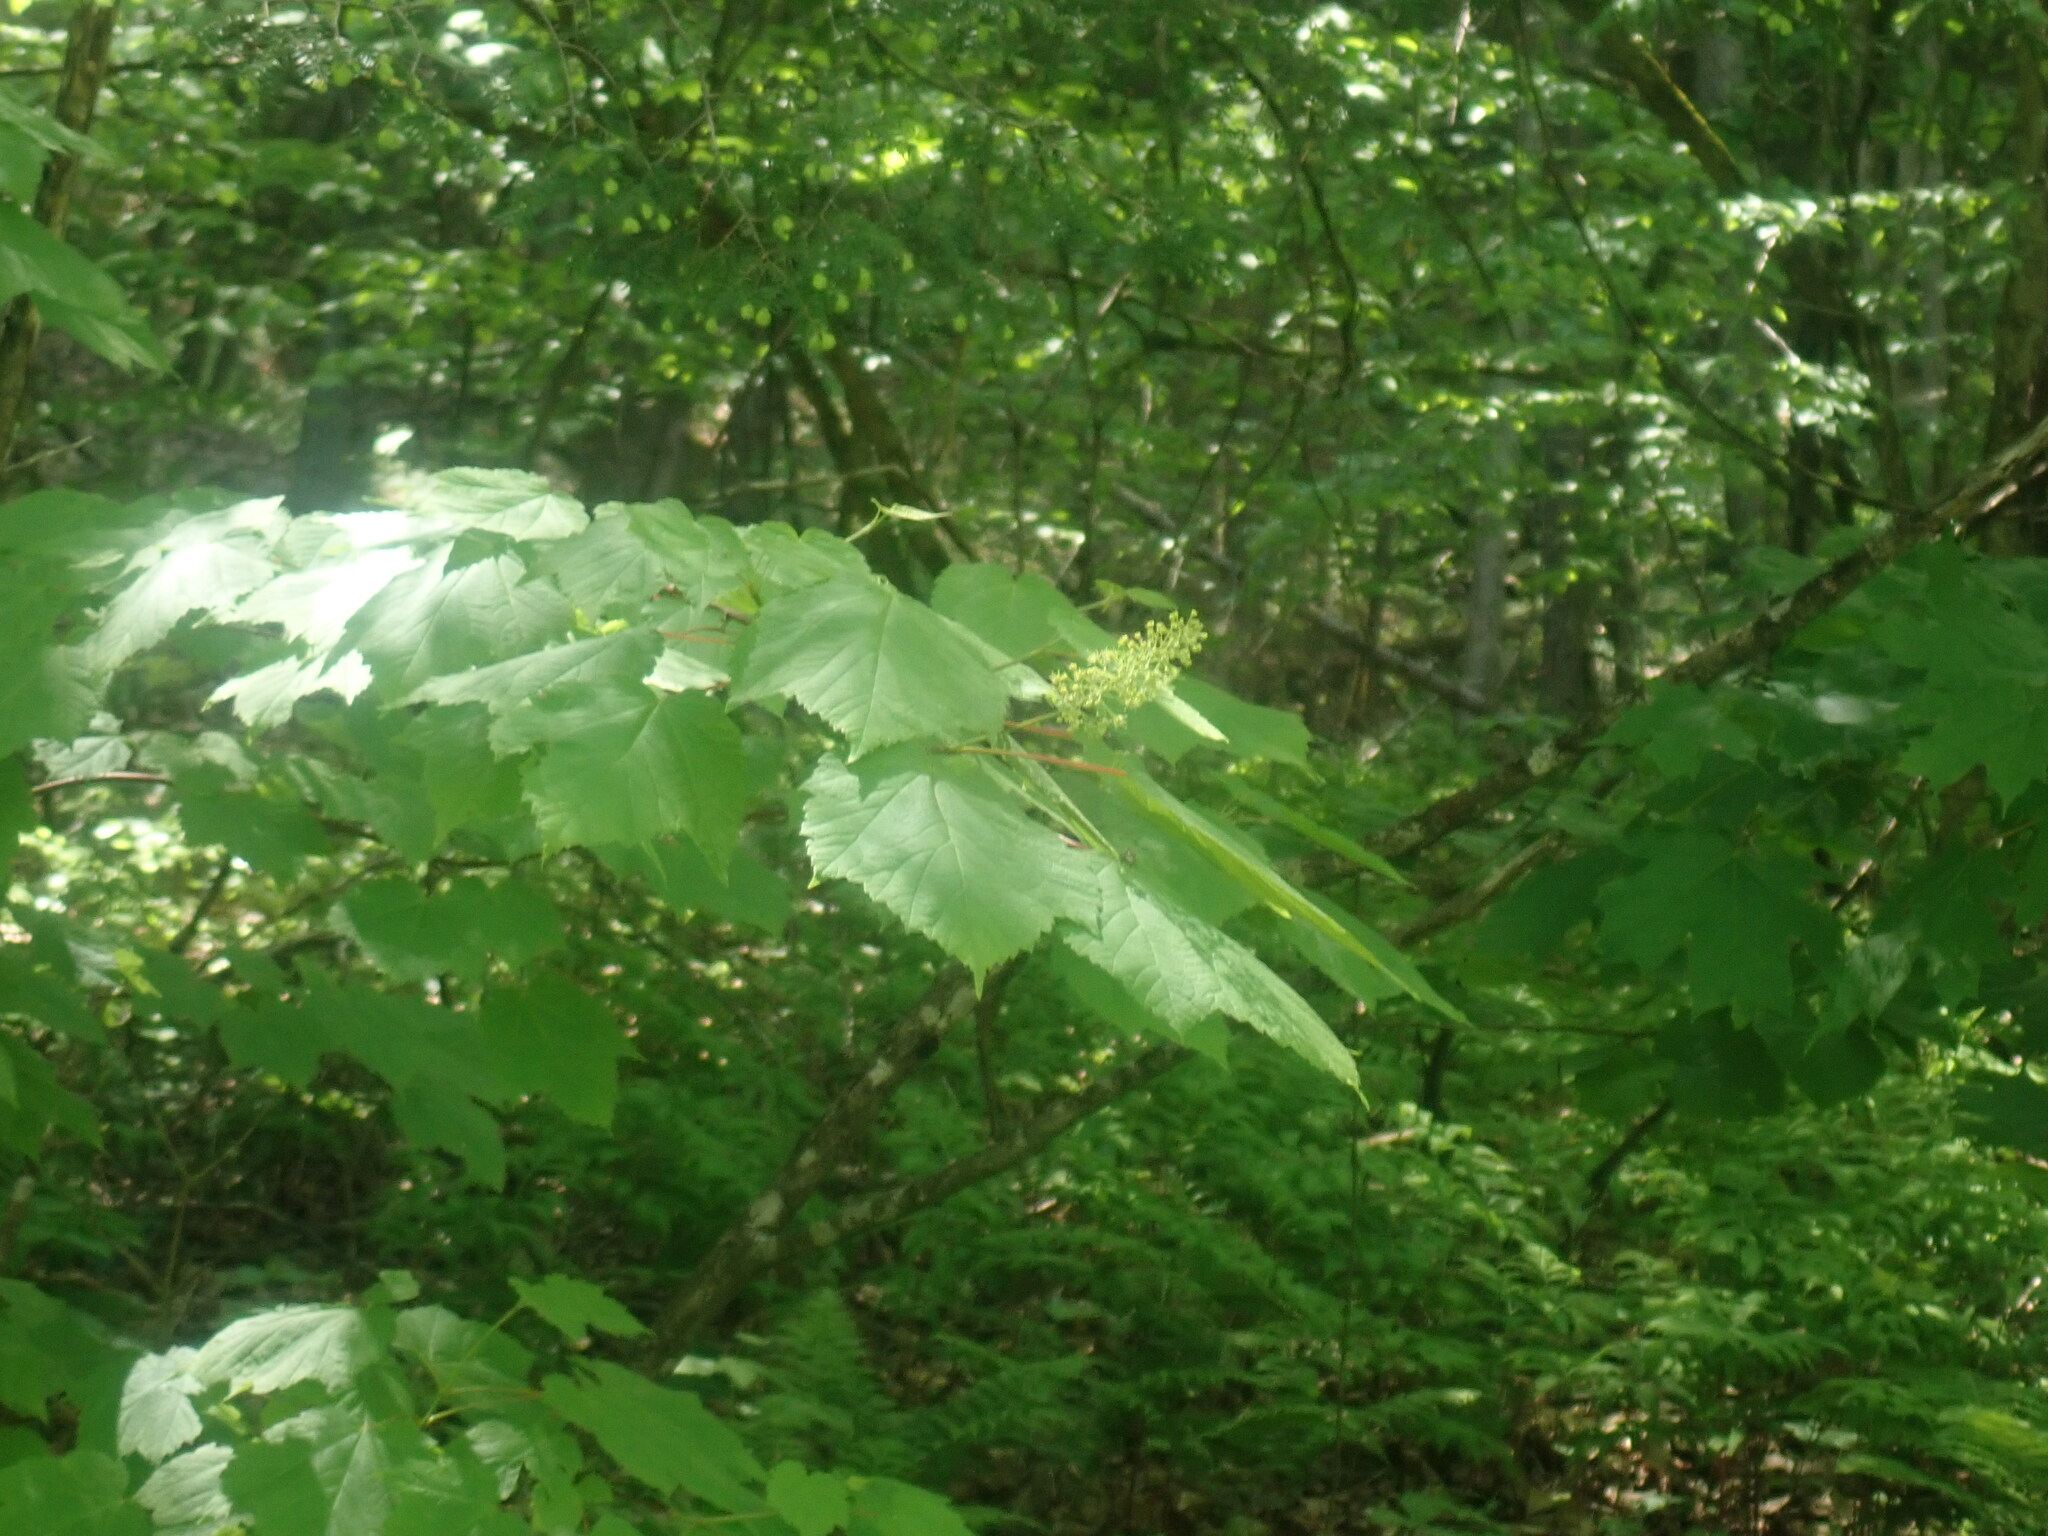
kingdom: Plantae
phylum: Tracheophyta
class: Magnoliopsida
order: Sapindales
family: Sapindaceae
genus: Acer
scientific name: Acer spicatum
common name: Mountain maple
